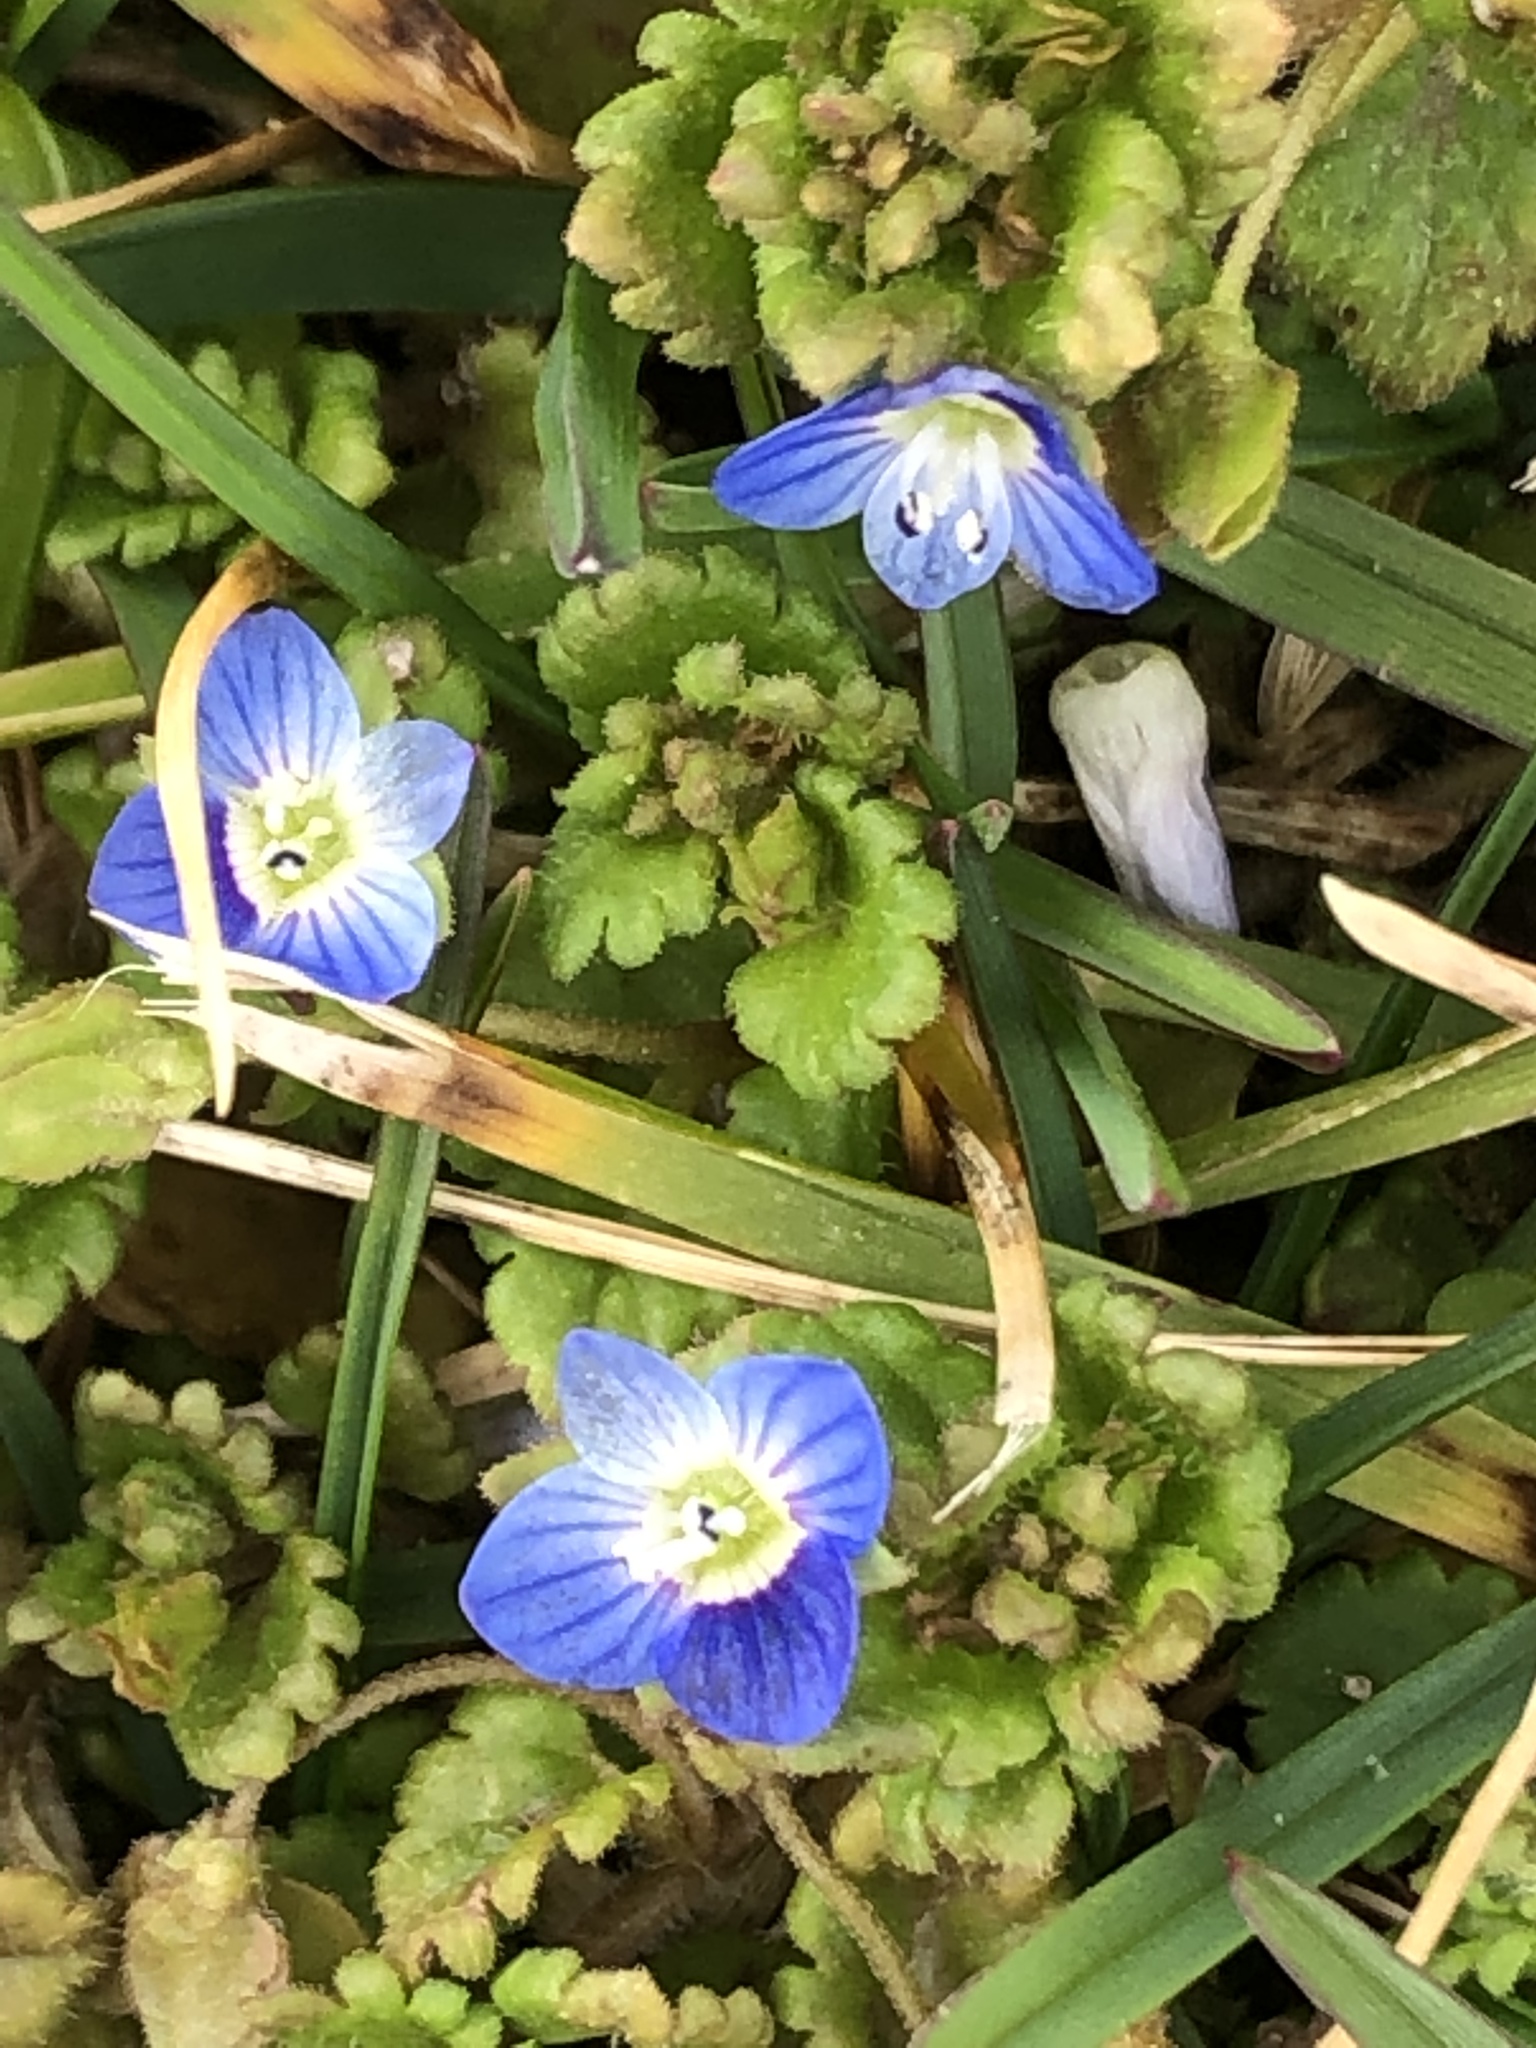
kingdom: Plantae
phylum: Tracheophyta
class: Magnoliopsida
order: Lamiales
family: Plantaginaceae
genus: Veronica
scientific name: Veronica polita
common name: Grey field-speedwell
